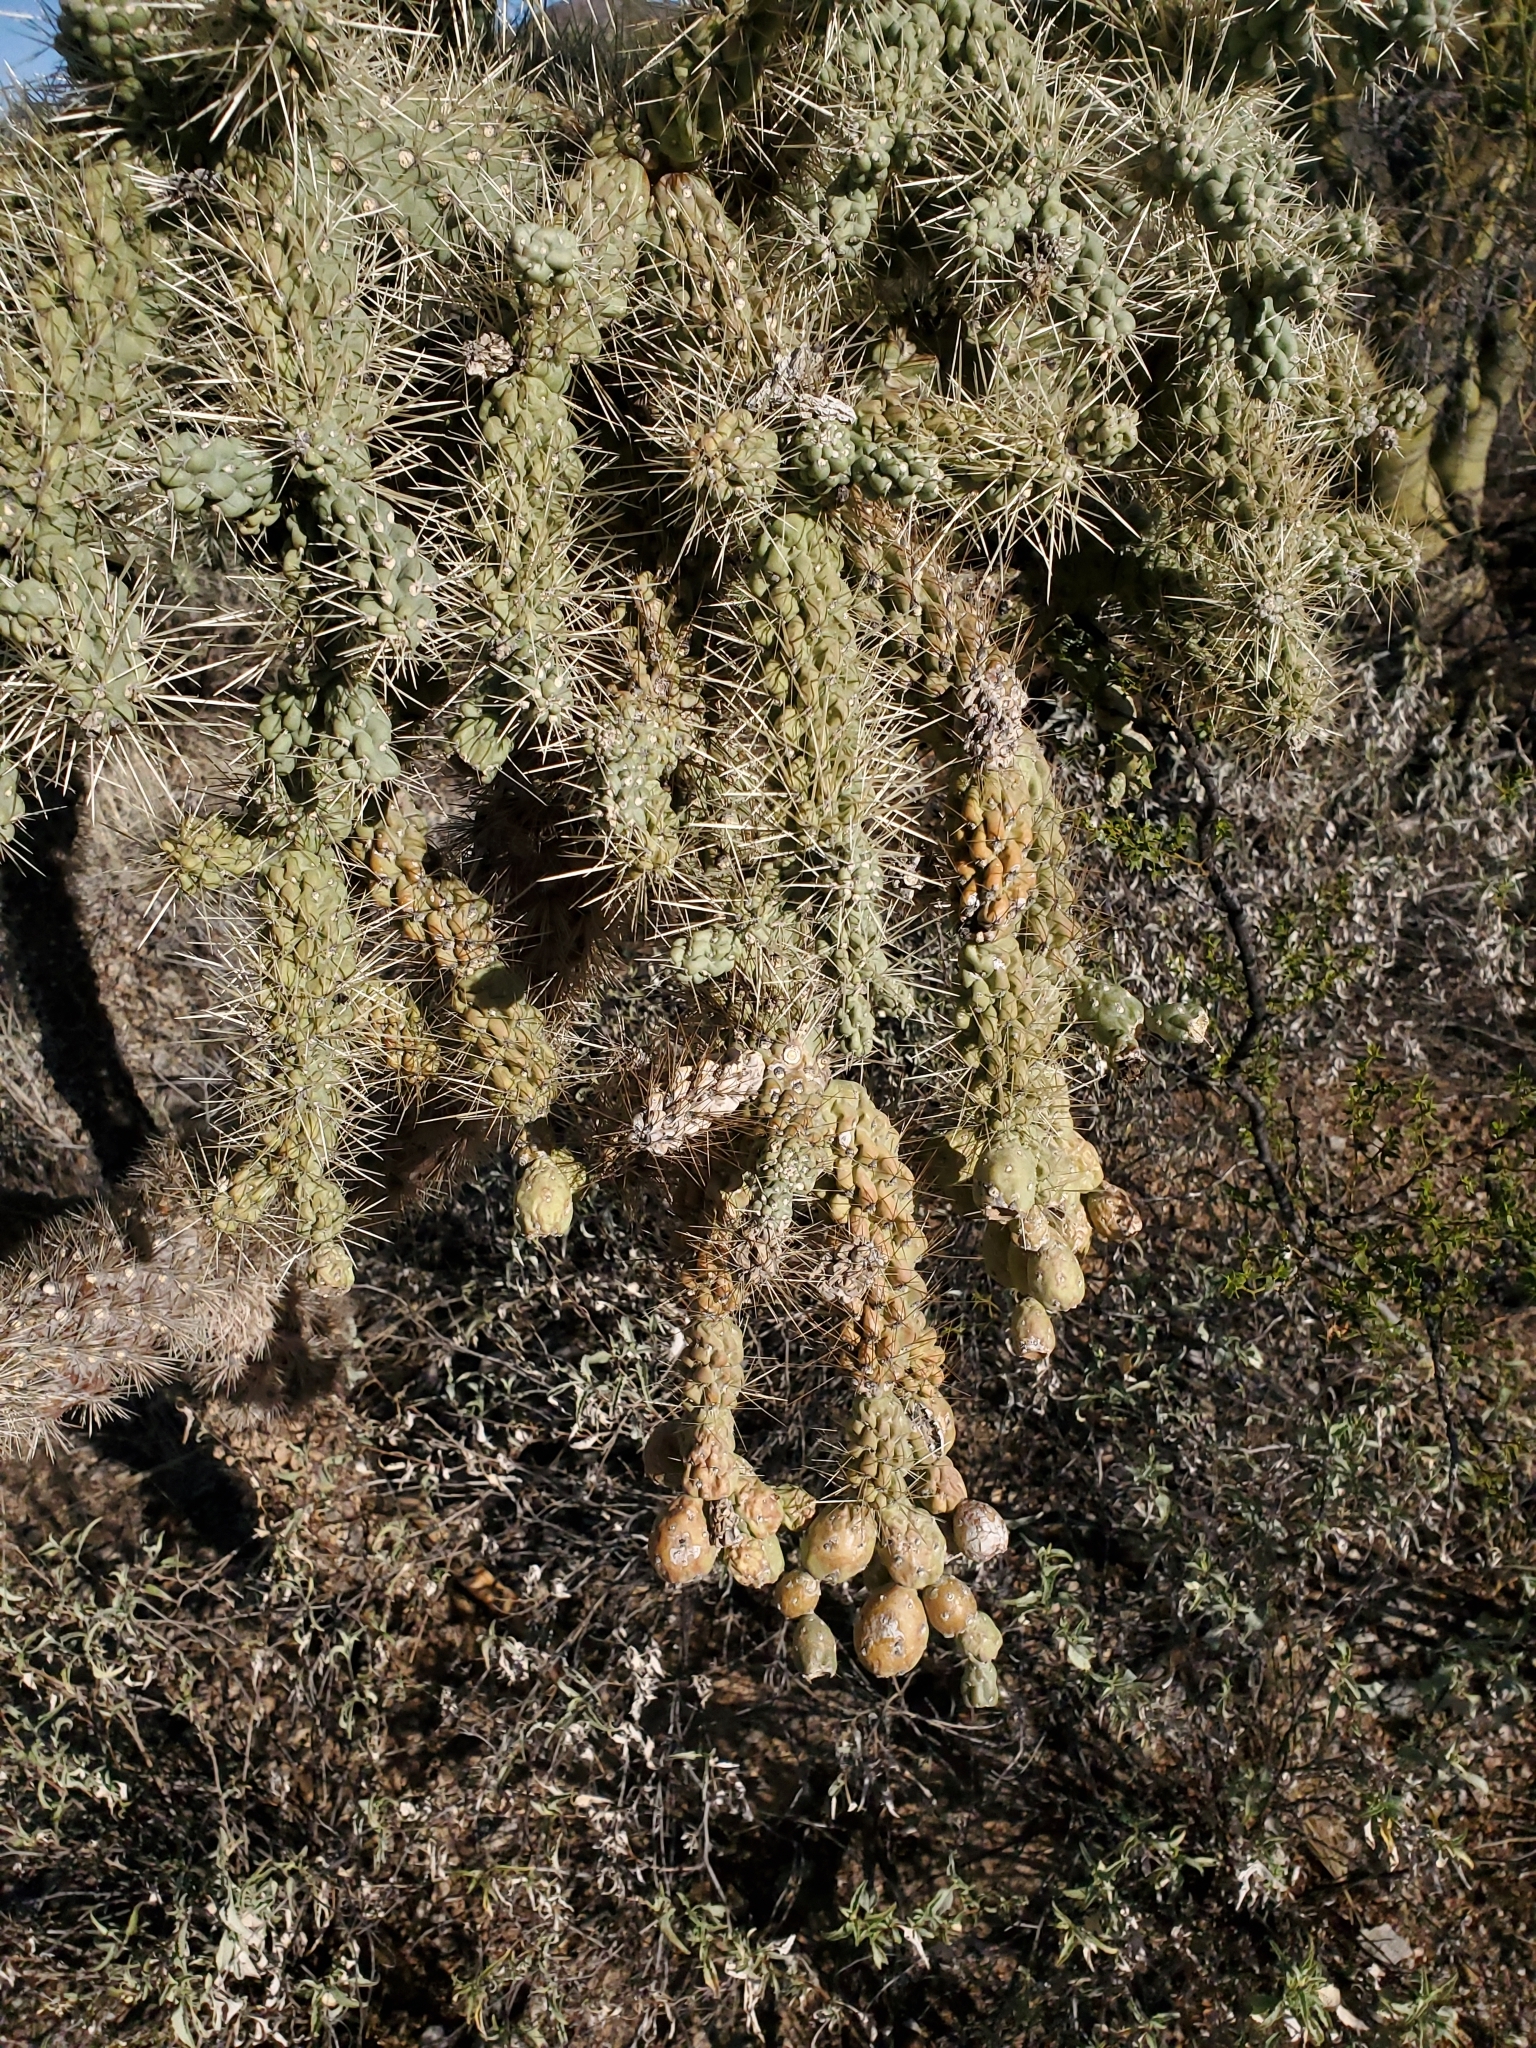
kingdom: Plantae
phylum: Tracheophyta
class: Magnoliopsida
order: Caryophyllales
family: Cactaceae
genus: Cylindropuntia
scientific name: Cylindropuntia fulgida
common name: Jumping cholla
